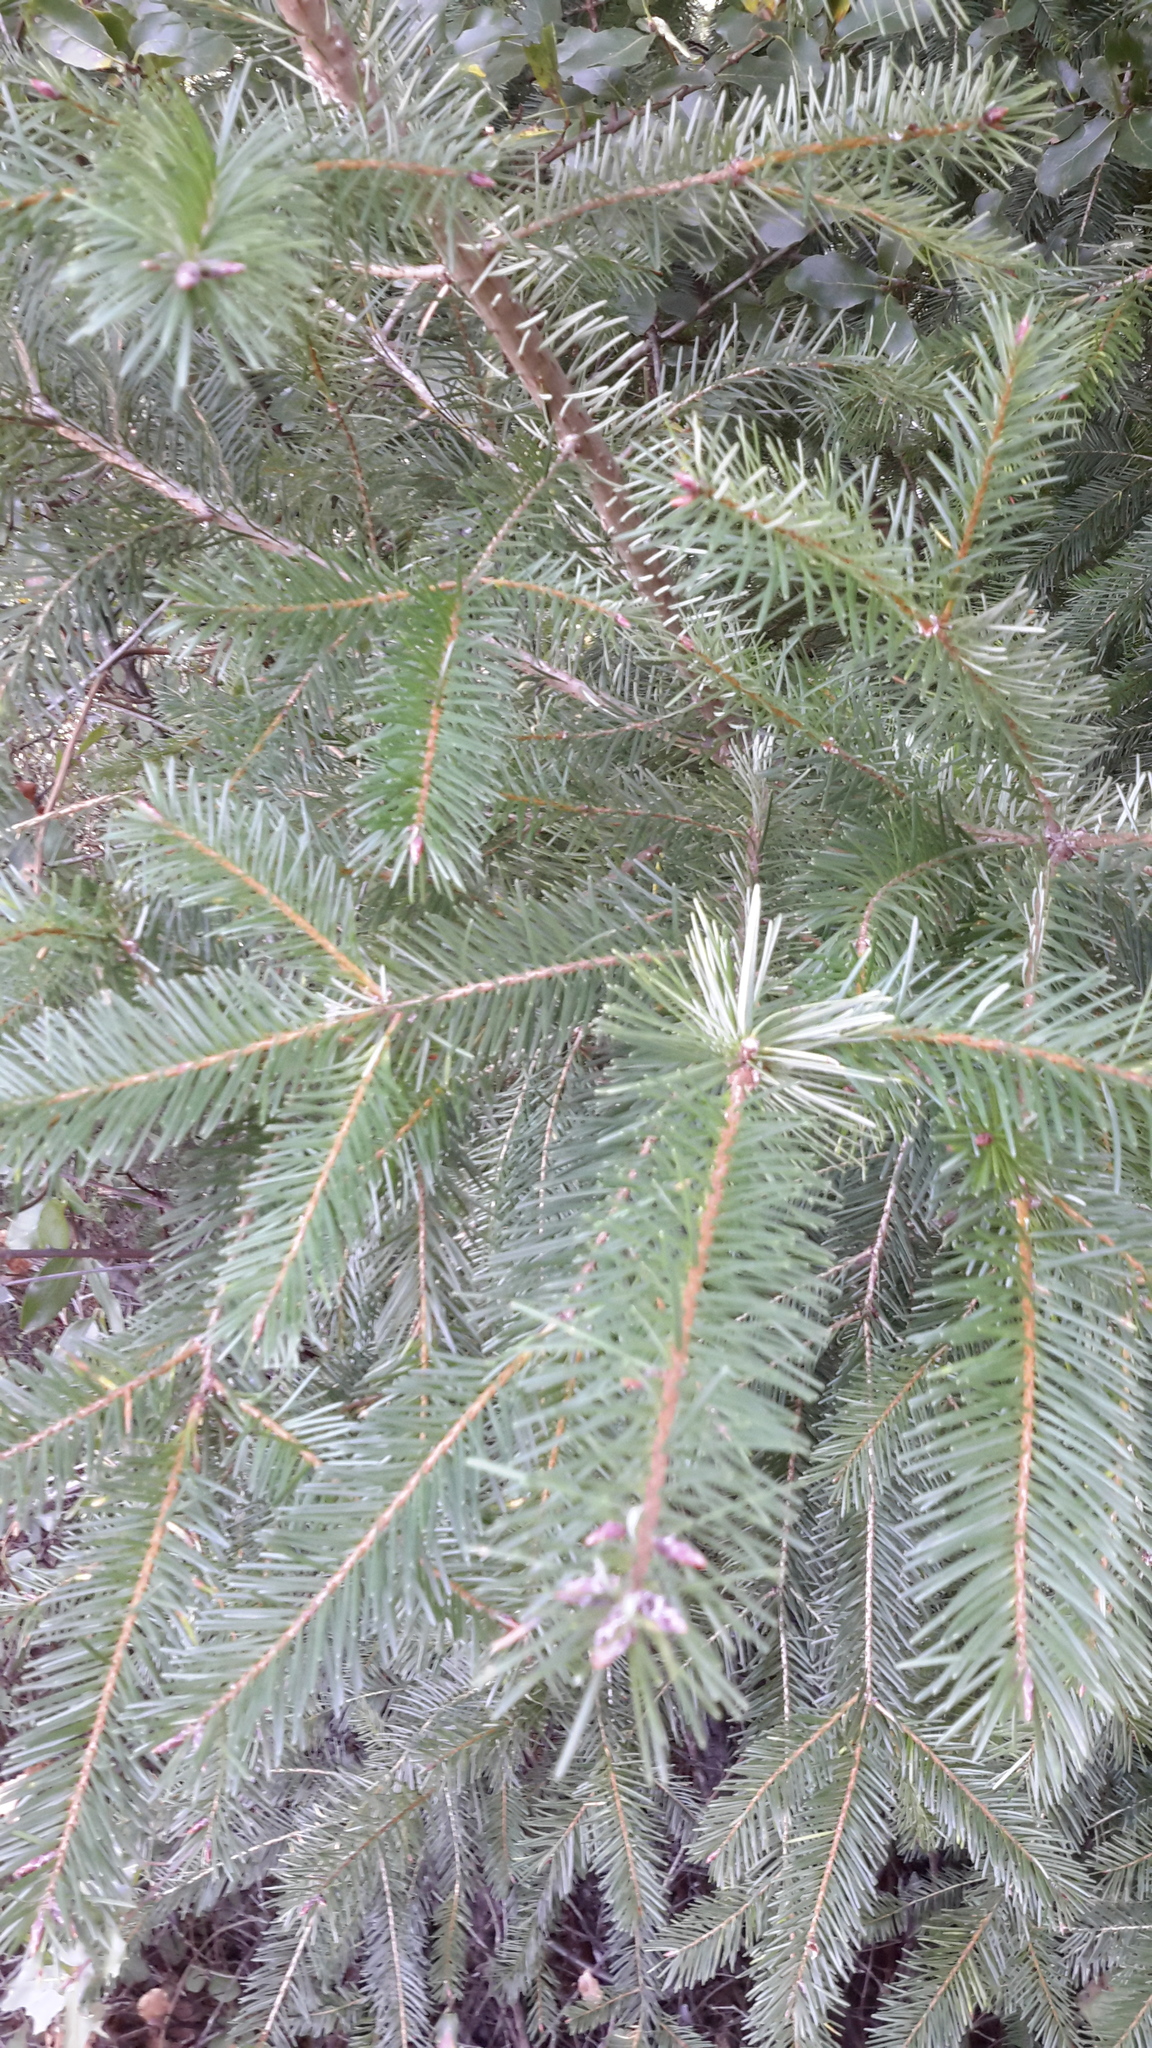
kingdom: Plantae
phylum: Tracheophyta
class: Pinopsida
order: Pinales
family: Pinaceae
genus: Pseudotsuga
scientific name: Pseudotsuga menziesii
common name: Douglas fir
